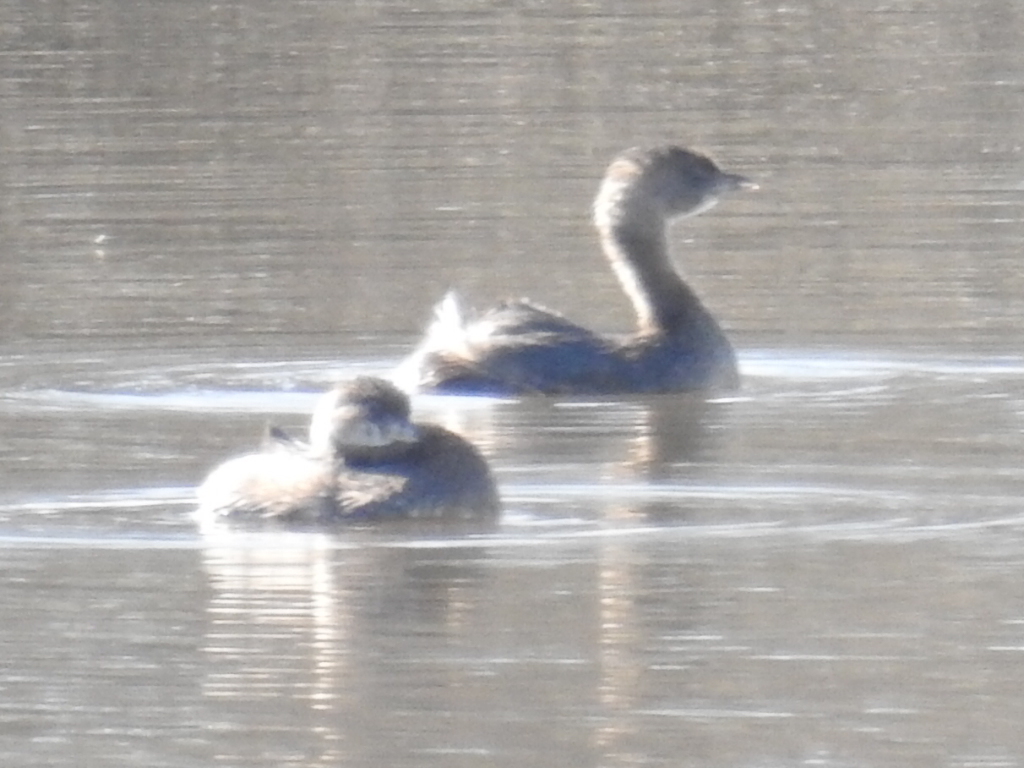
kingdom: Animalia
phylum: Chordata
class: Aves
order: Podicipediformes
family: Podicipedidae
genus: Podilymbus
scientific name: Podilymbus podiceps
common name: Pied-billed grebe
